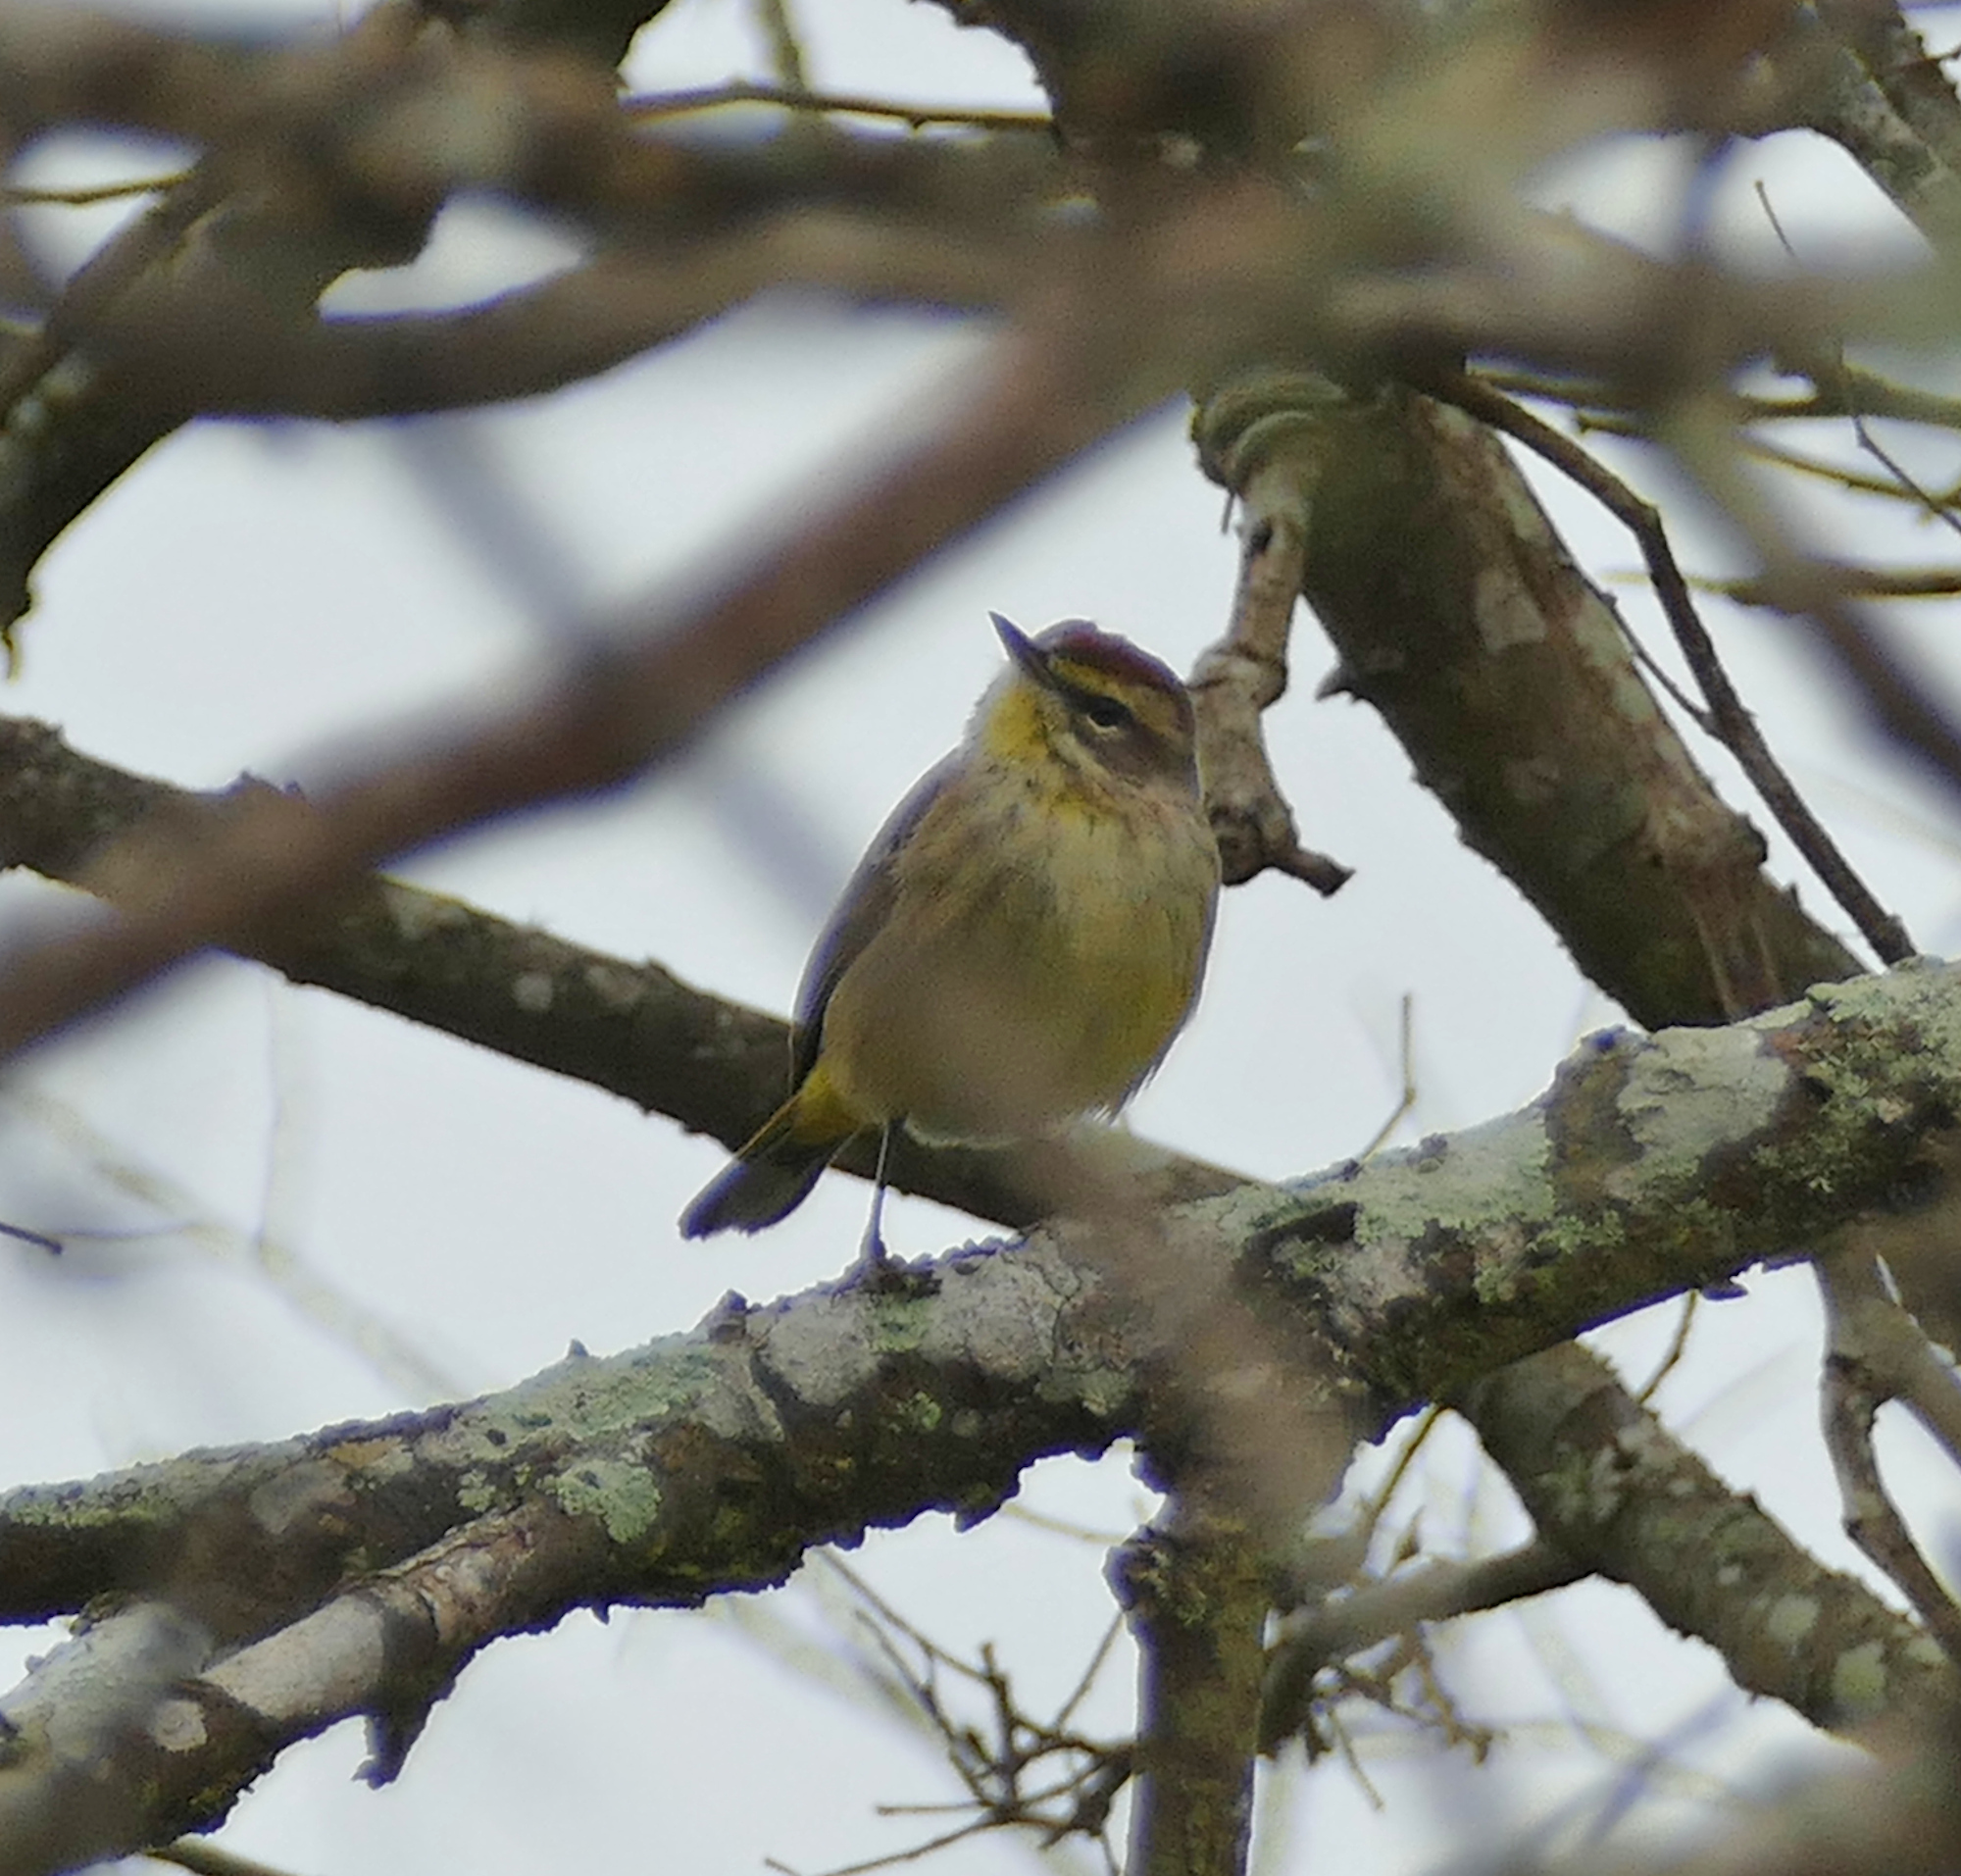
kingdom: Animalia
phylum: Chordata
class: Aves
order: Passeriformes
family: Parulidae
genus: Setophaga
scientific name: Setophaga palmarum
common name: Palm warbler
